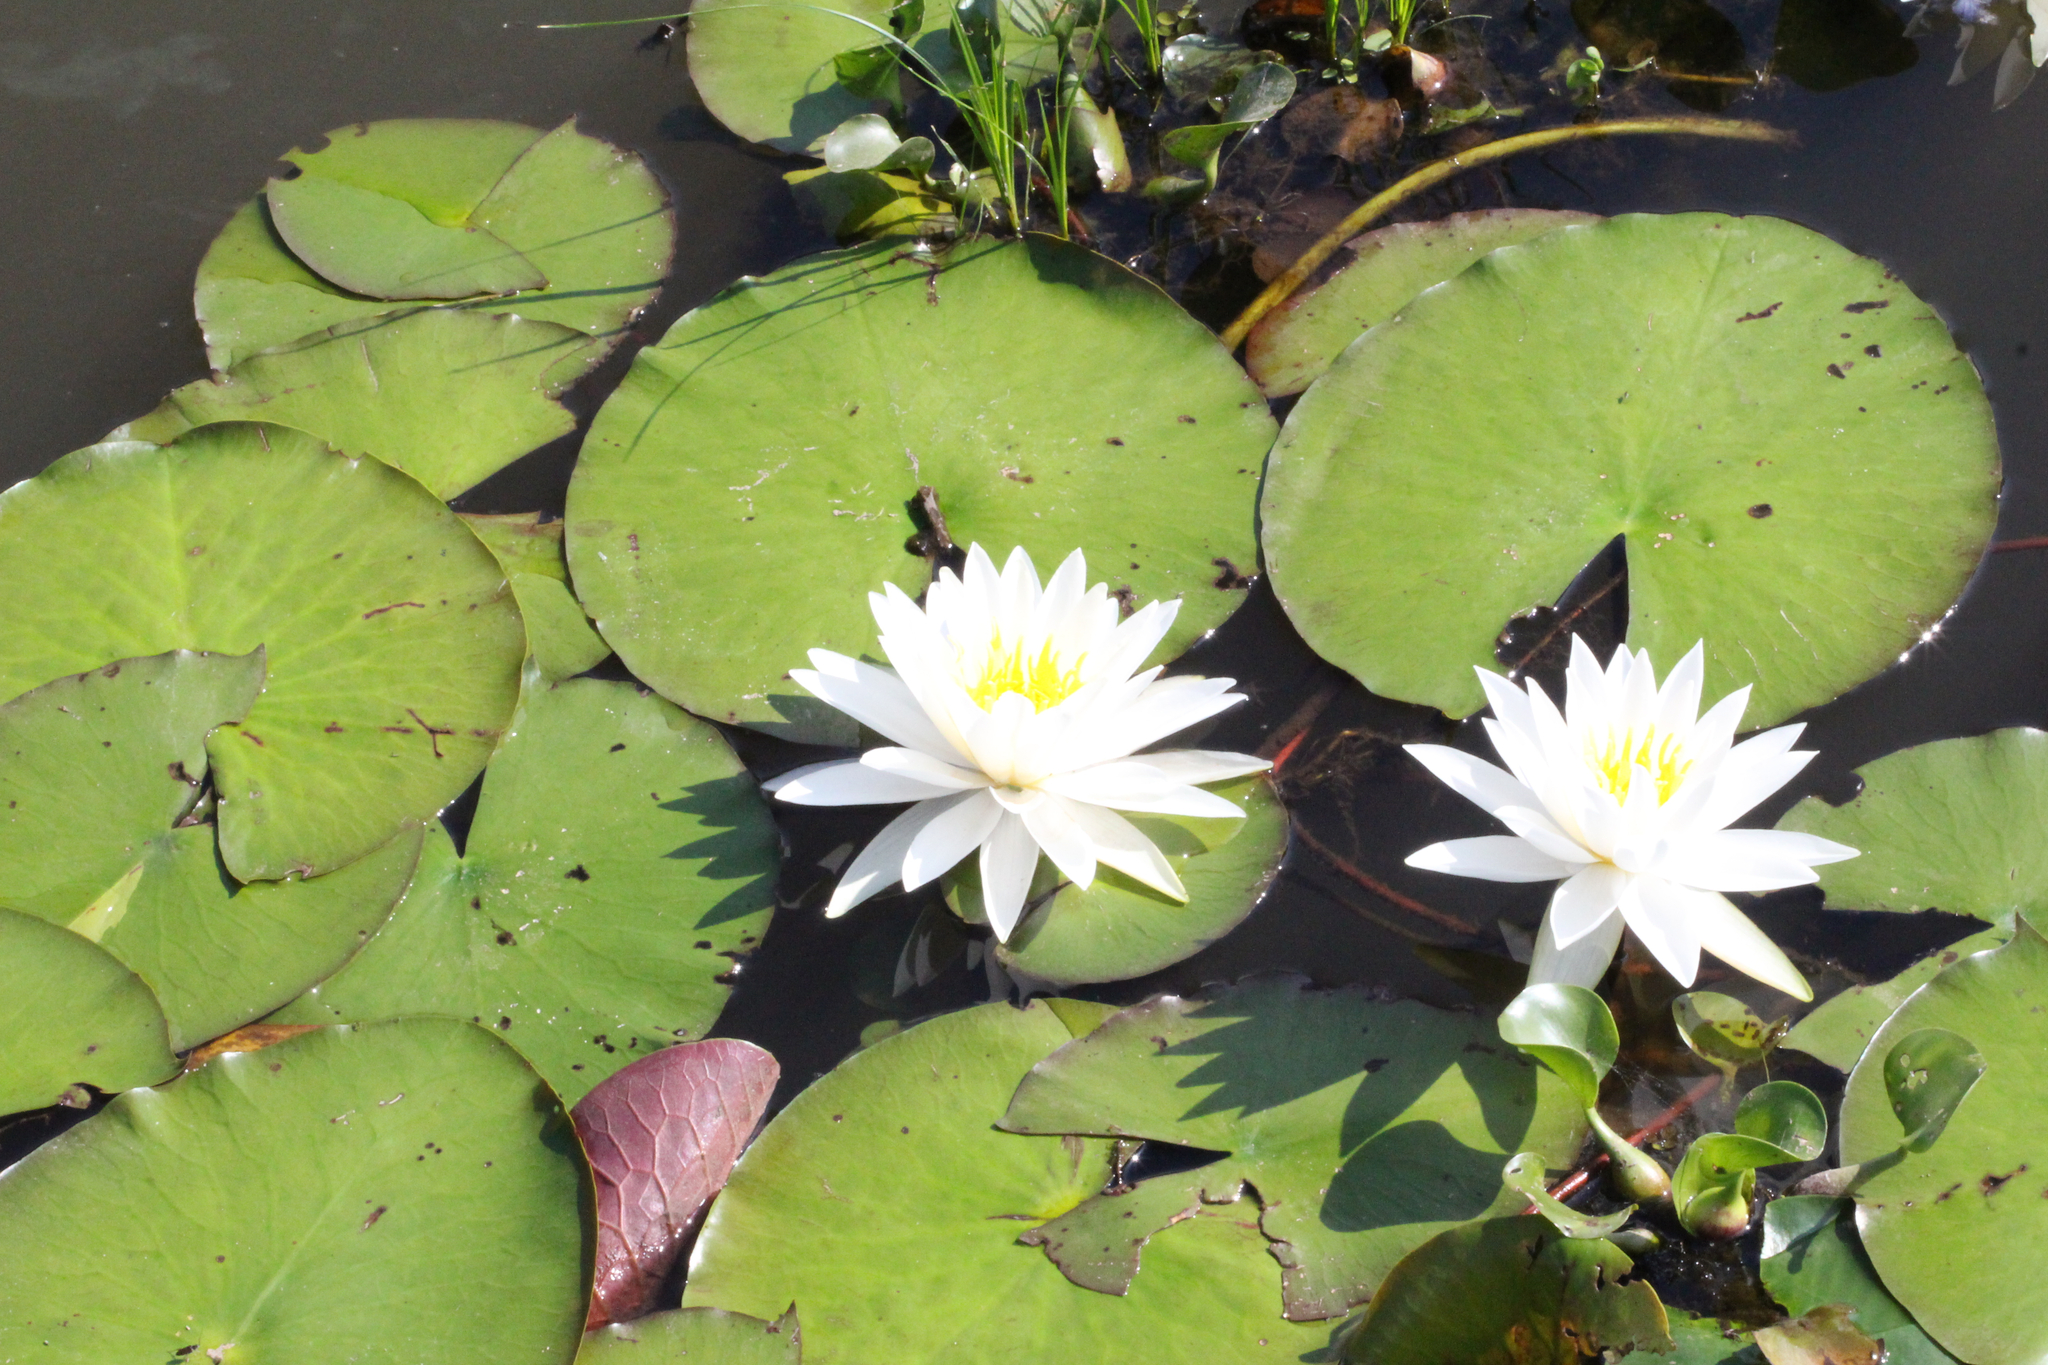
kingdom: Plantae
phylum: Tracheophyta
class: Magnoliopsida
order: Nymphaeales
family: Nymphaeaceae
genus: Nymphaea
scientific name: Nymphaea odorata
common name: Fragrant water-lily
